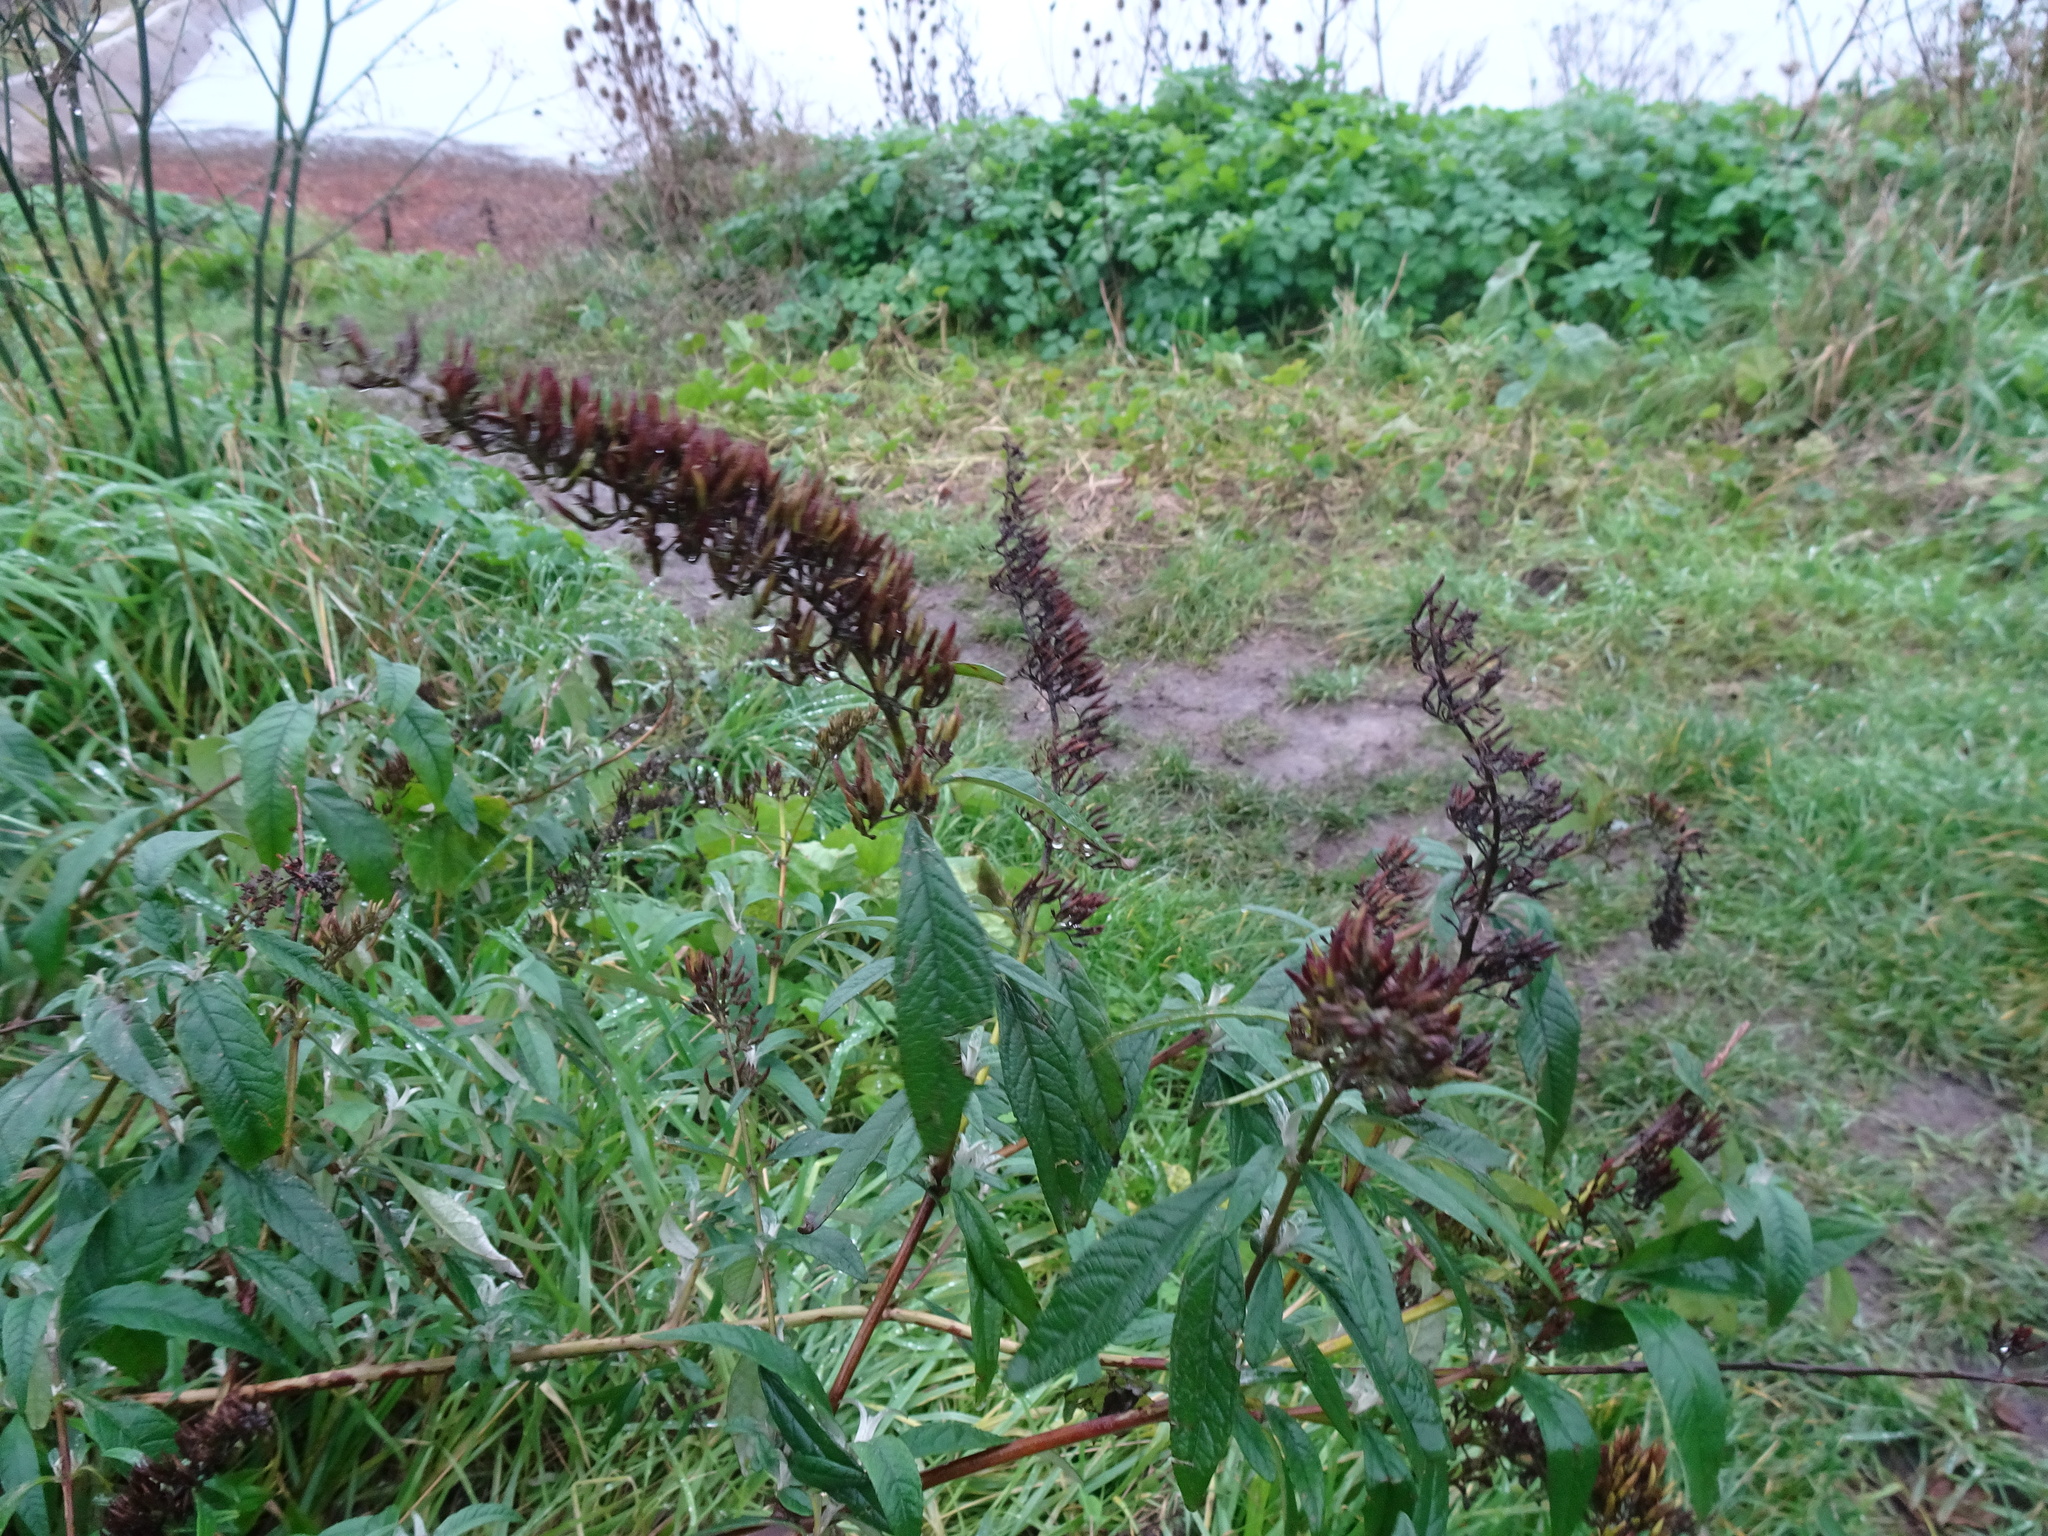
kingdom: Plantae
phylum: Tracheophyta
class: Magnoliopsida
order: Lamiales
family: Scrophulariaceae
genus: Buddleja
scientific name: Buddleja davidii
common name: Butterfly-bush
